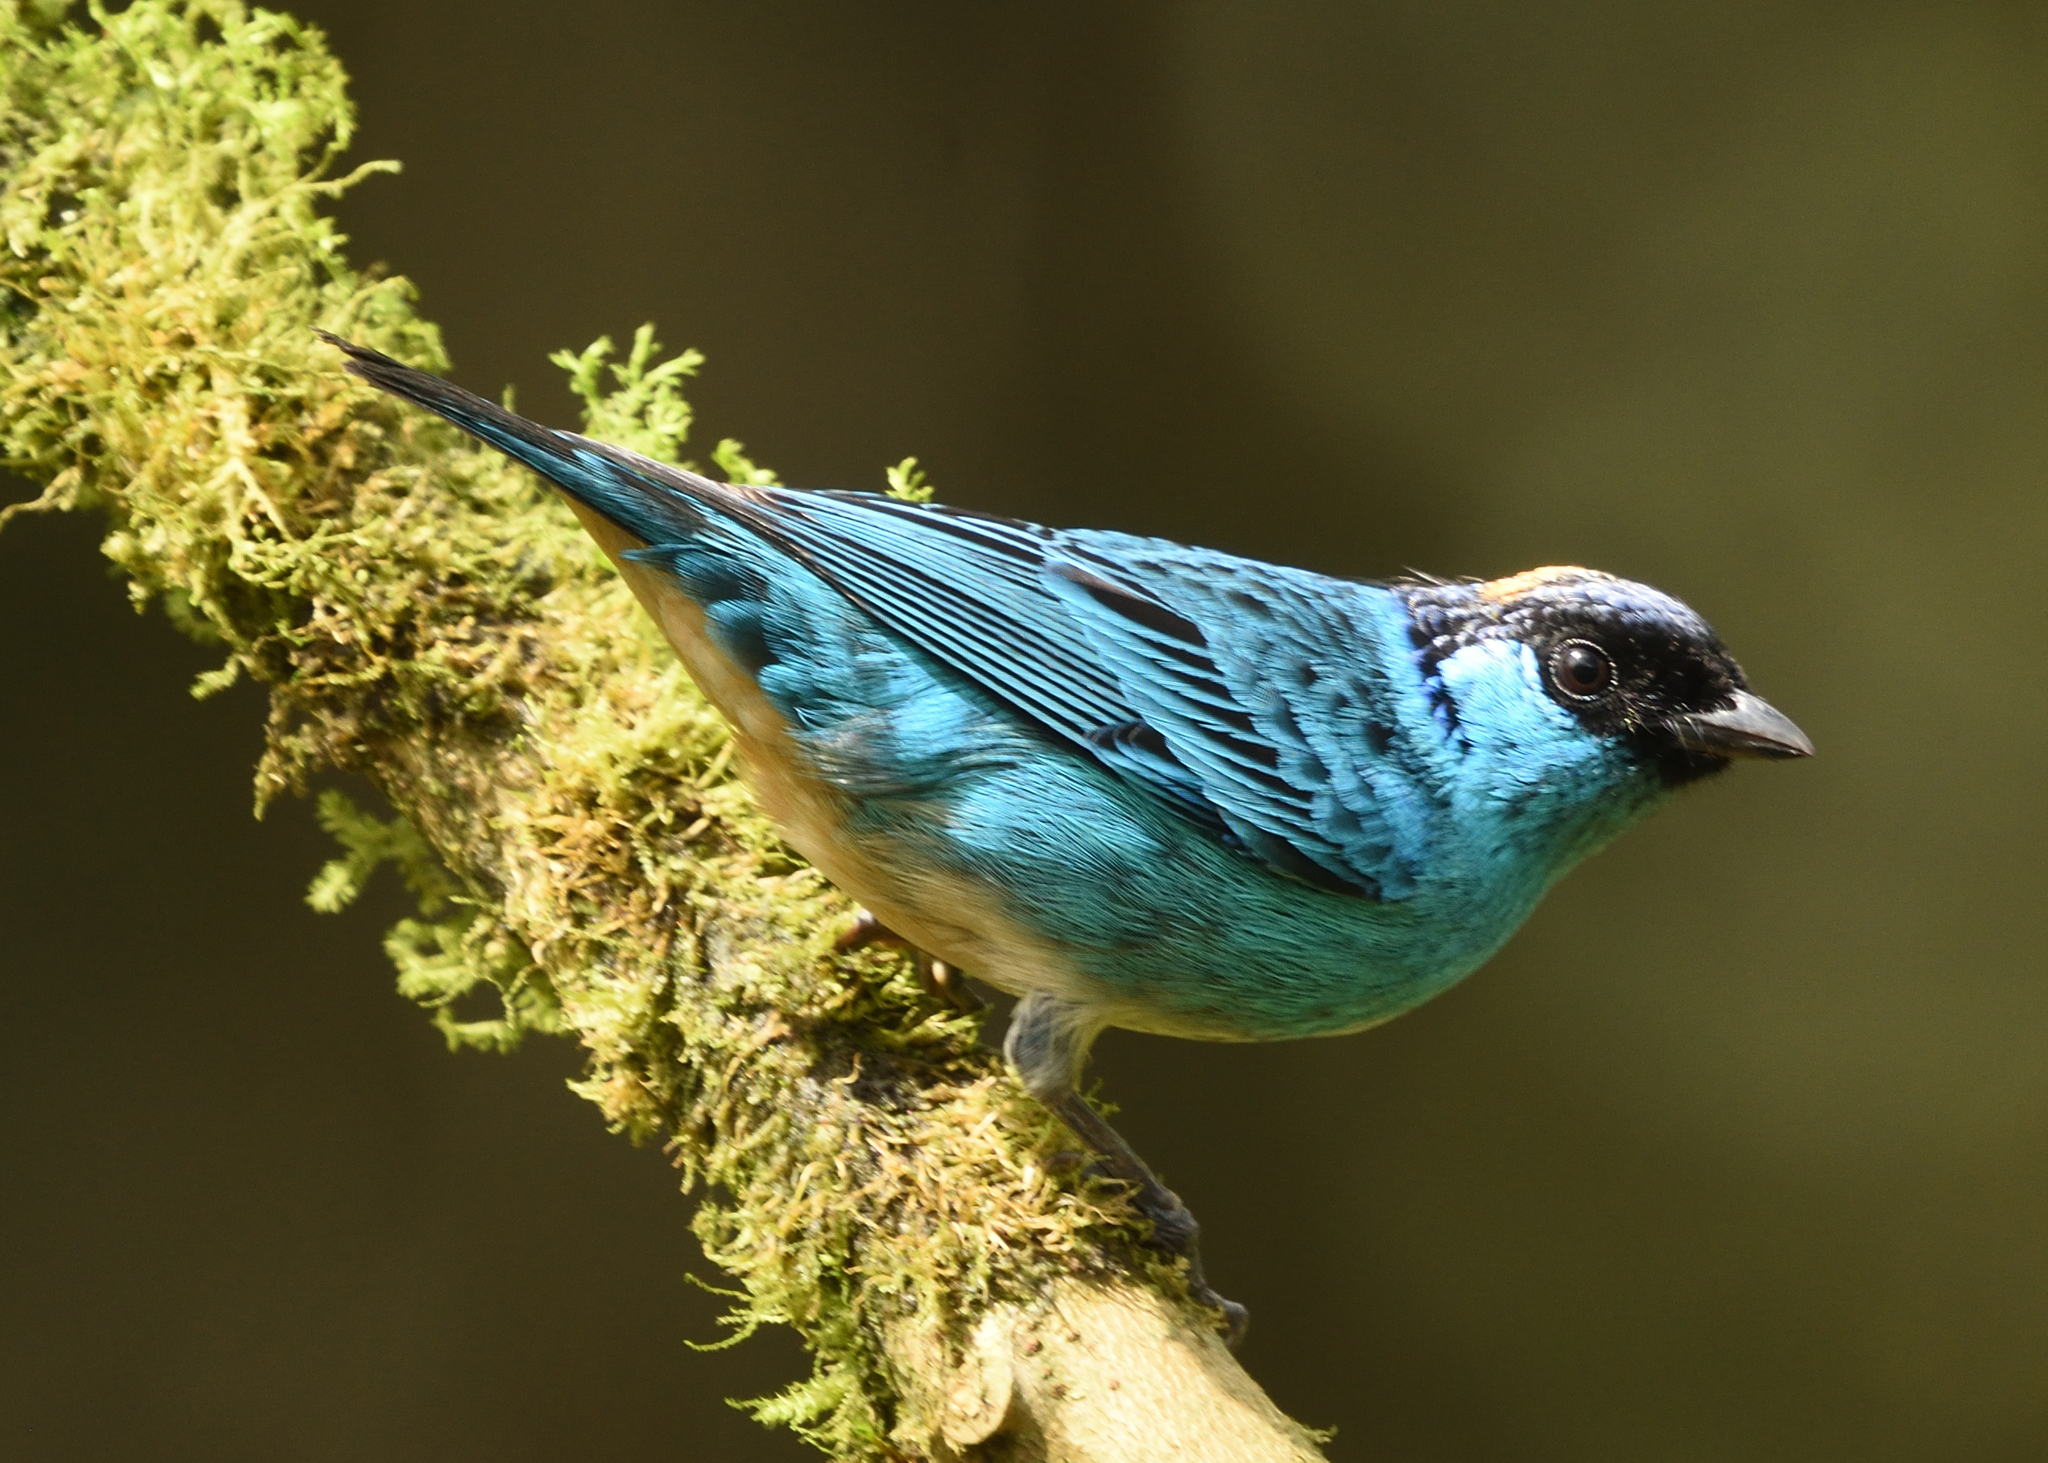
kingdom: Animalia
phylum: Chordata
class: Aves
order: Passeriformes
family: Thraupidae
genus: Chalcothraupis
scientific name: Chalcothraupis ruficervix
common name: Golden-naped tanager
